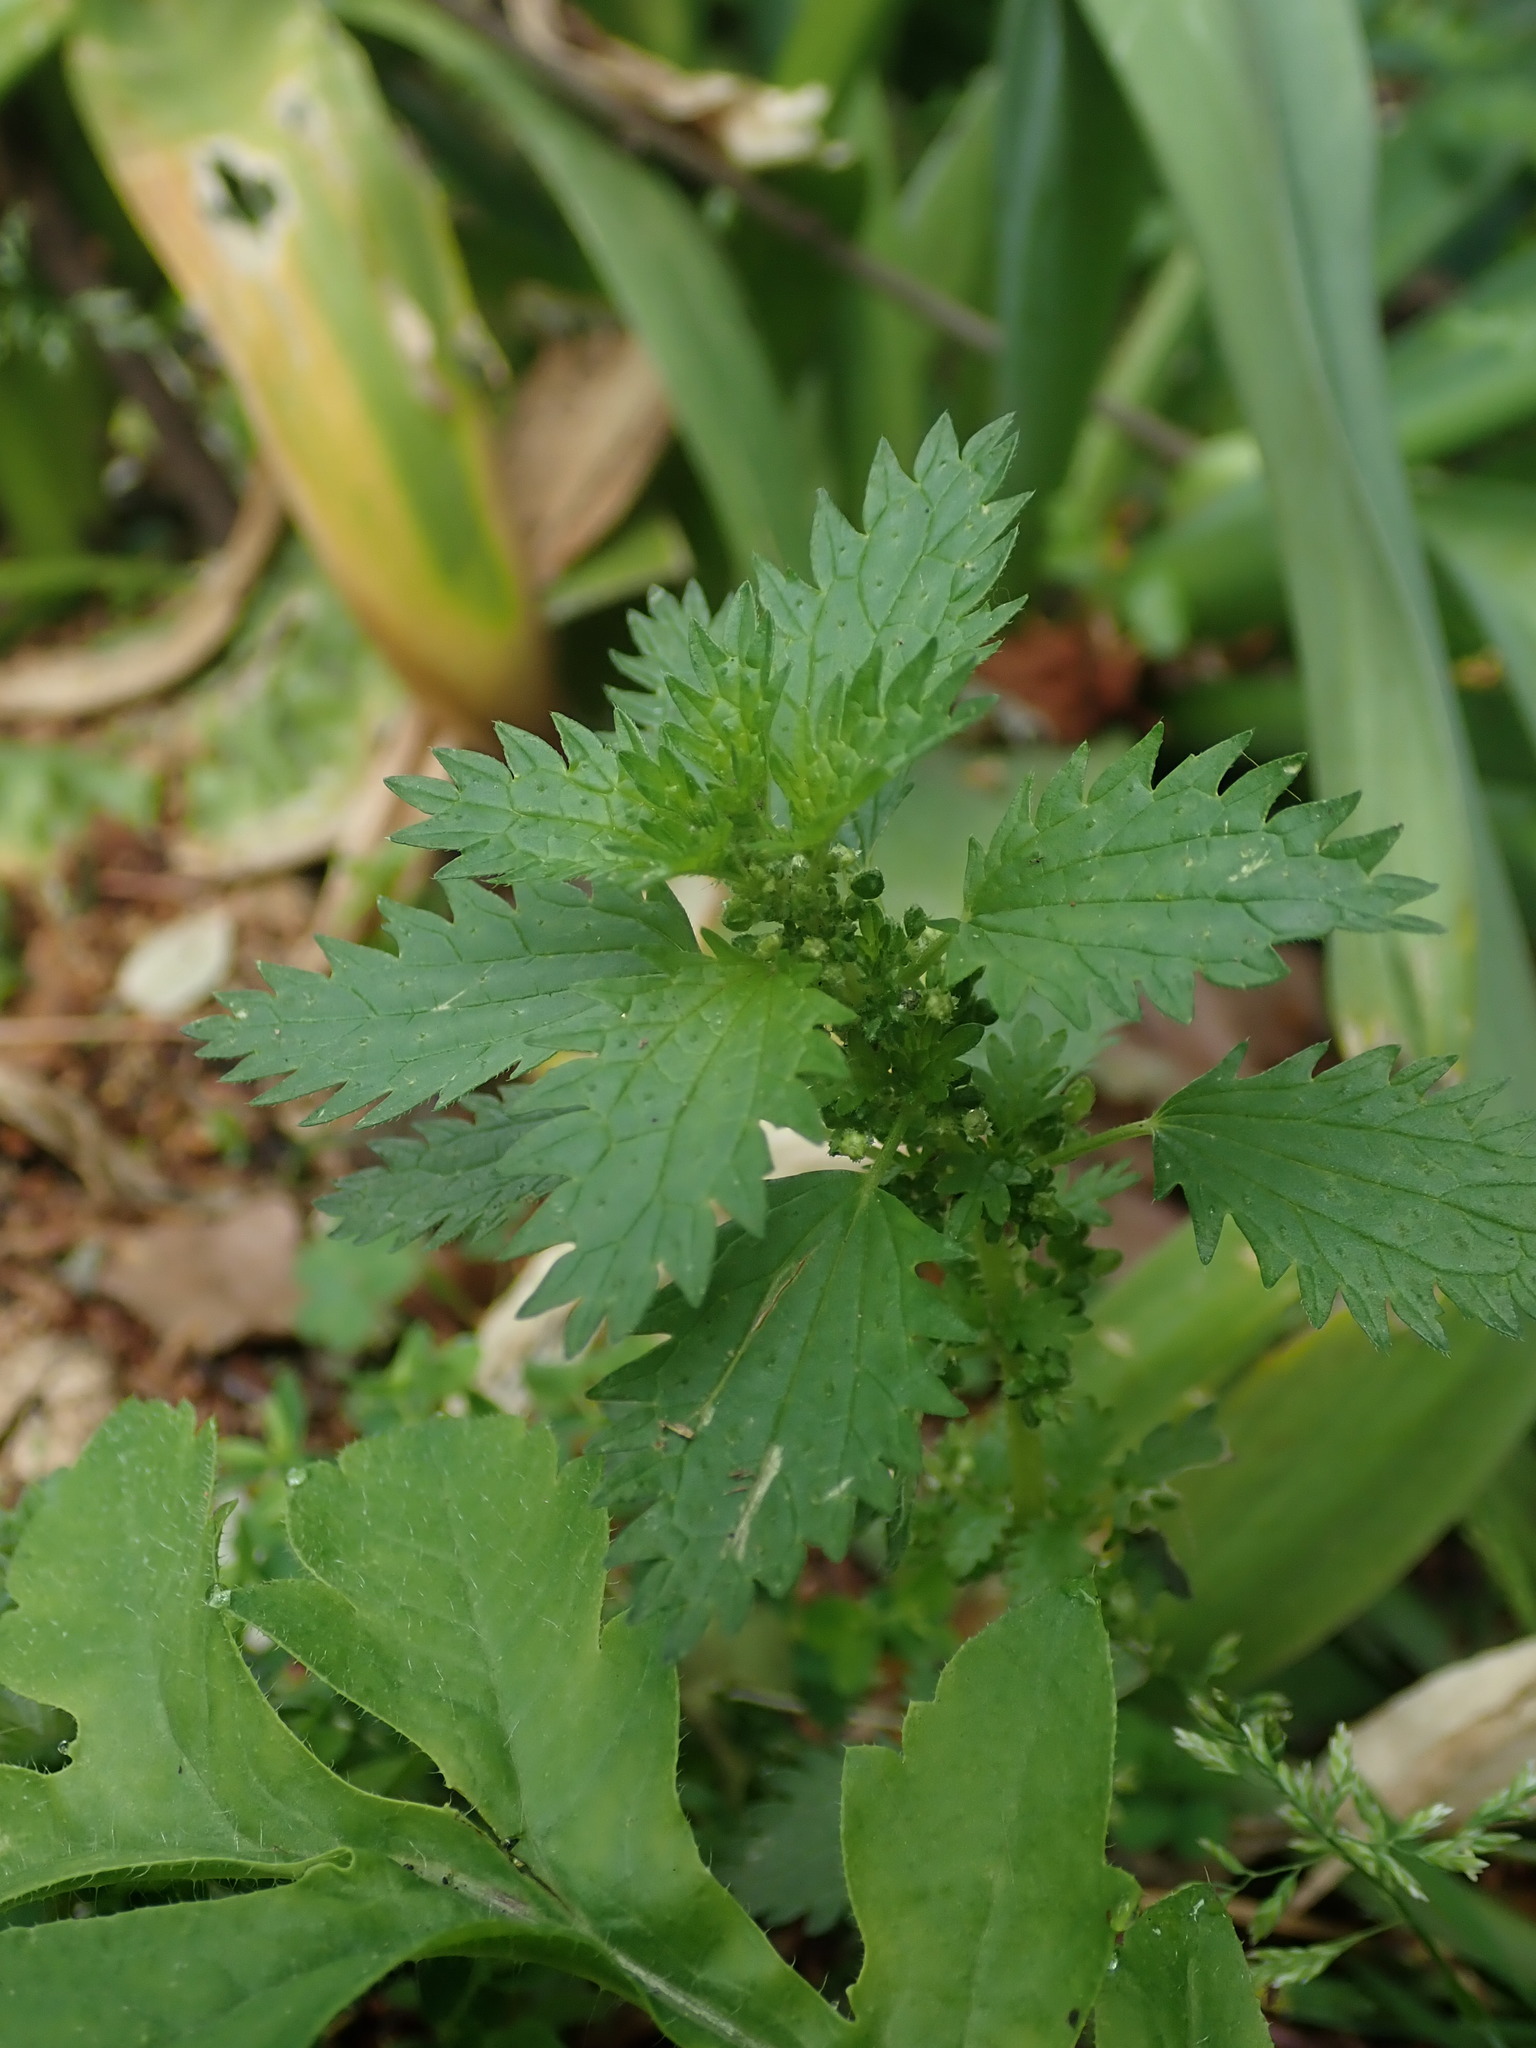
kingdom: Plantae
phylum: Tracheophyta
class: Magnoliopsida
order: Rosales
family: Urticaceae
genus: Urtica
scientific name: Urtica urens
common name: Dwarf nettle
